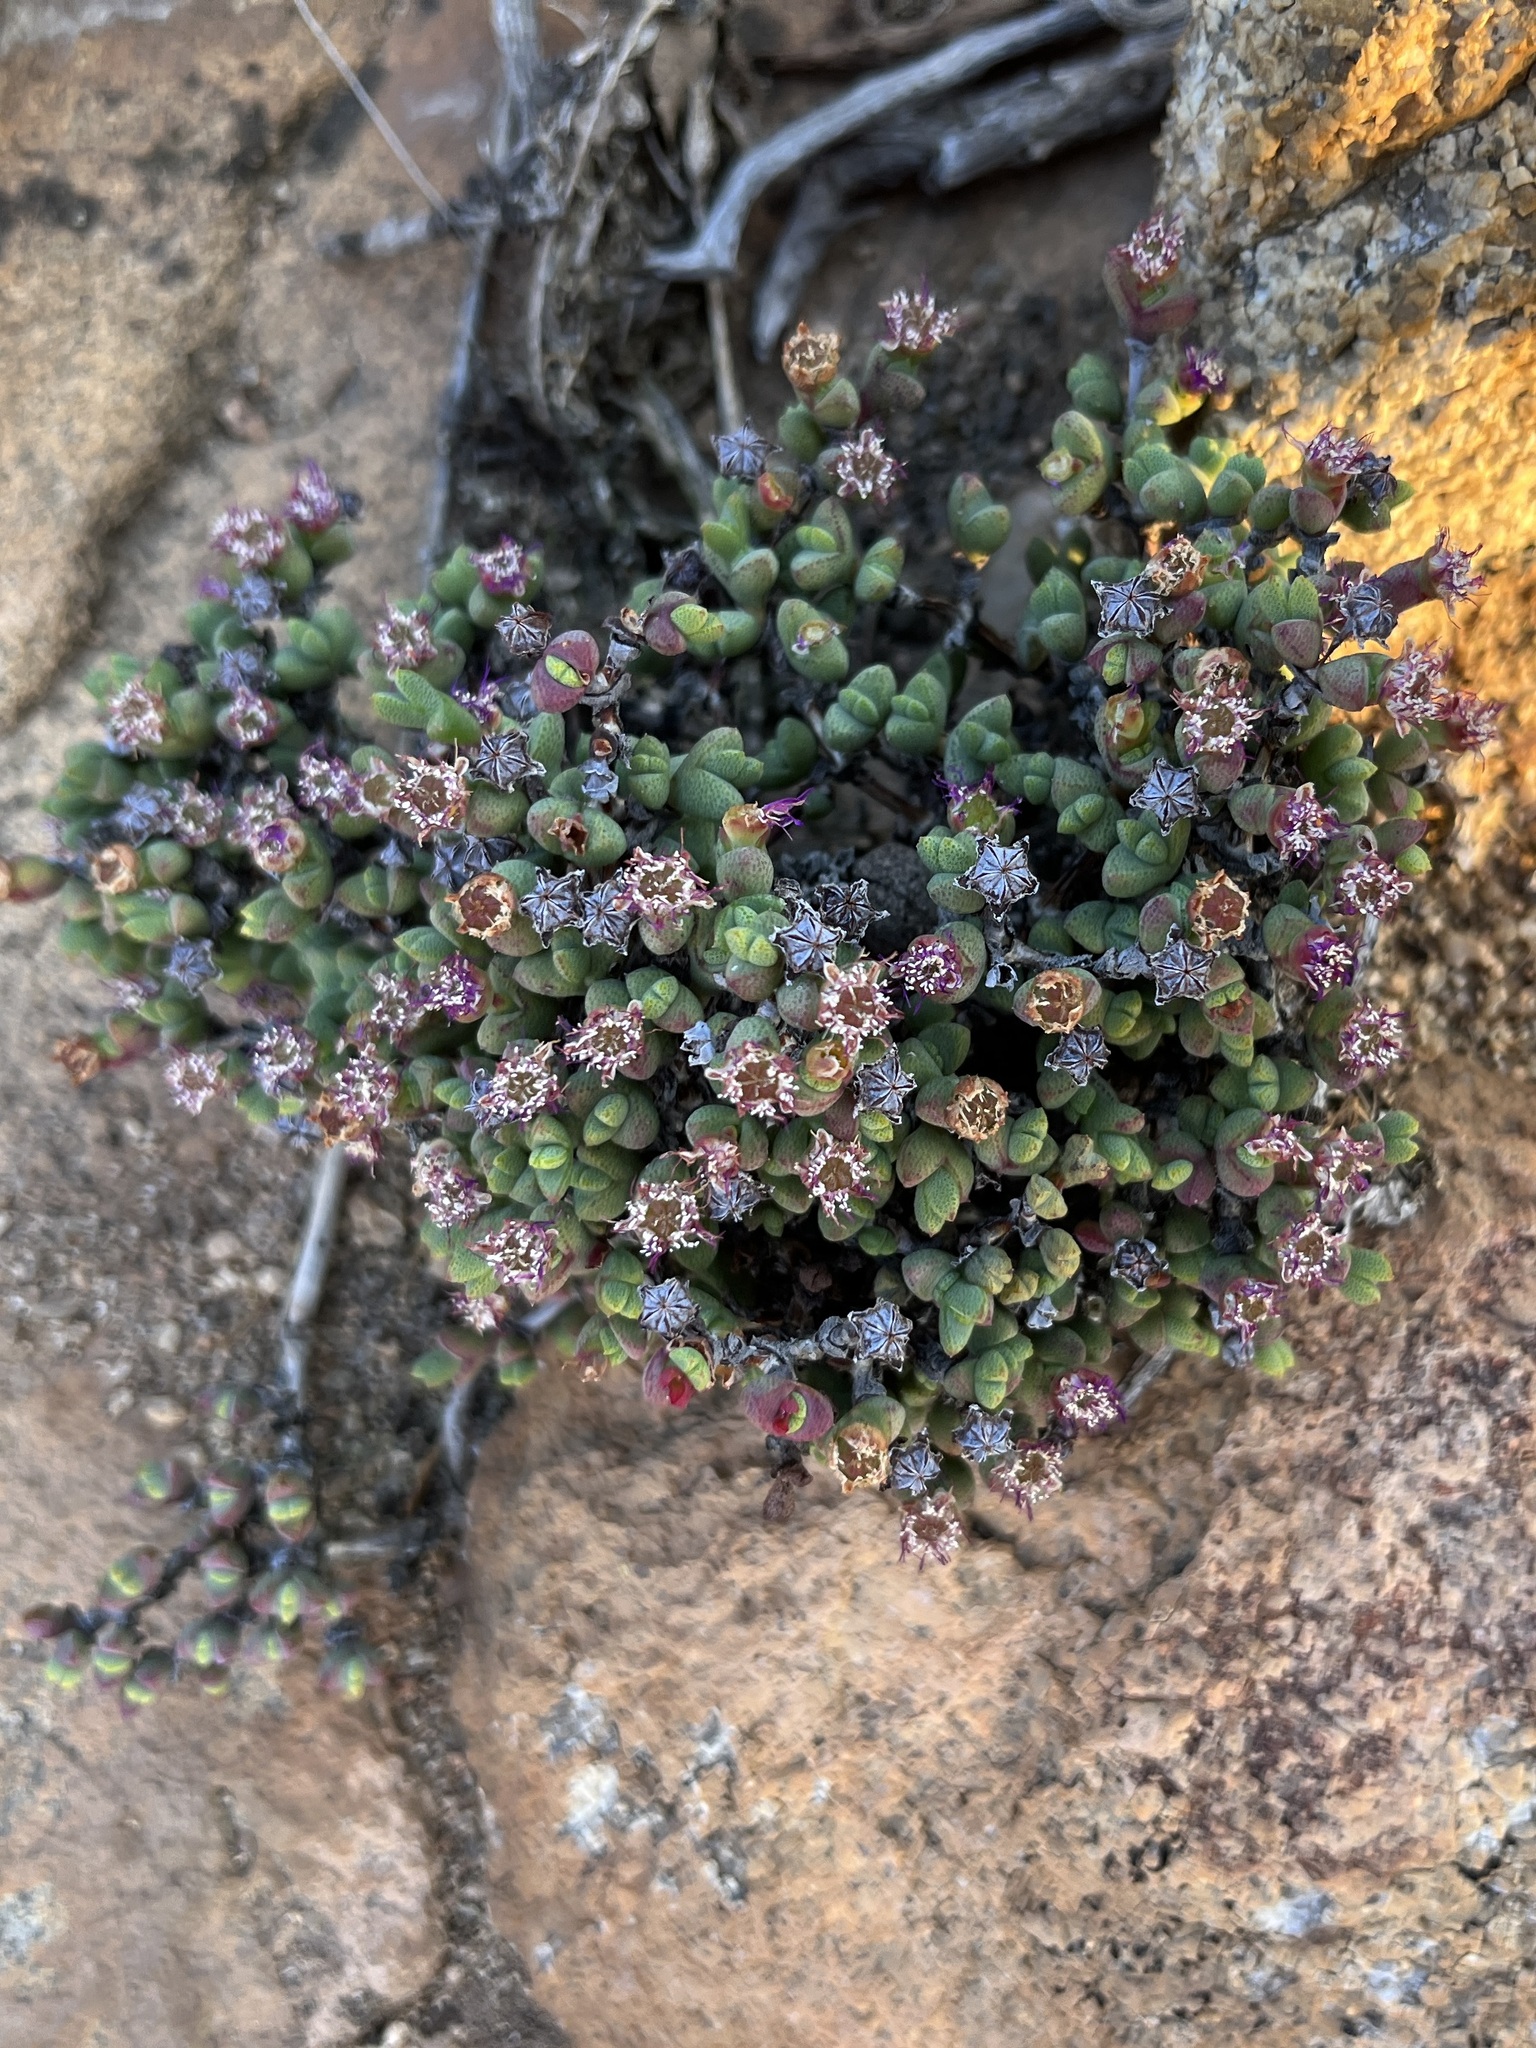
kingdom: Plantae
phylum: Tracheophyta
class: Magnoliopsida
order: Caryophyllales
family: Aizoaceae
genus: Ruschia
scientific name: Ruschia brakdamensis
